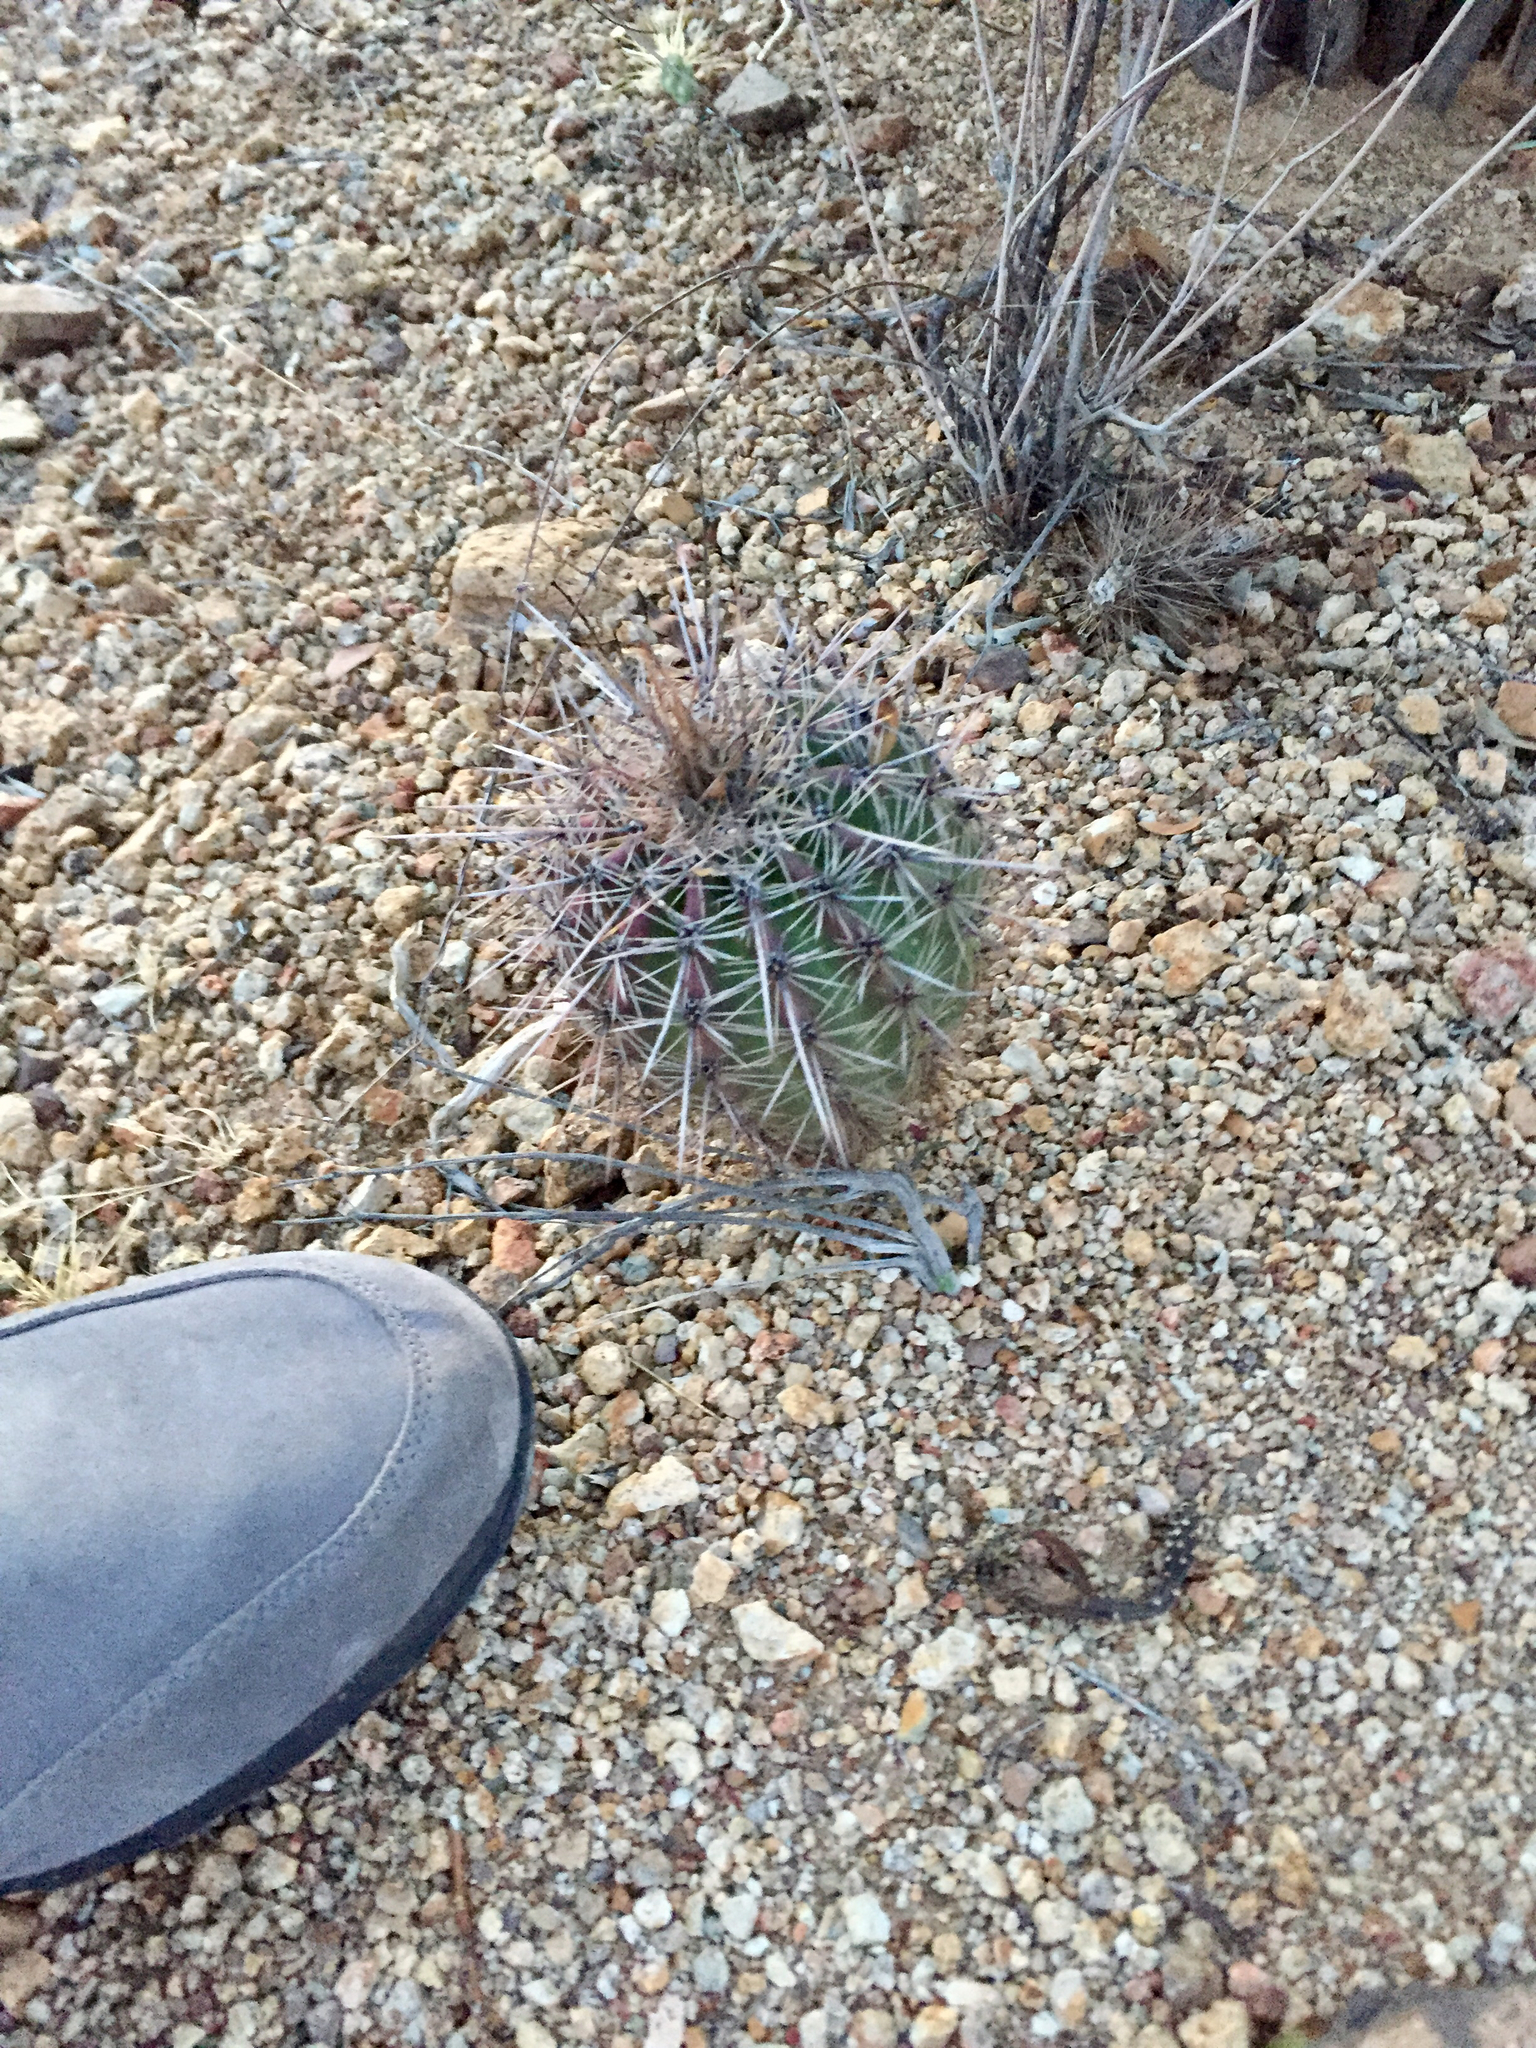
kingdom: Plantae
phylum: Tracheophyta
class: Magnoliopsida
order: Caryophyllales
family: Cactaceae
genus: Carnegiea
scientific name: Carnegiea gigantea
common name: Saguaro
